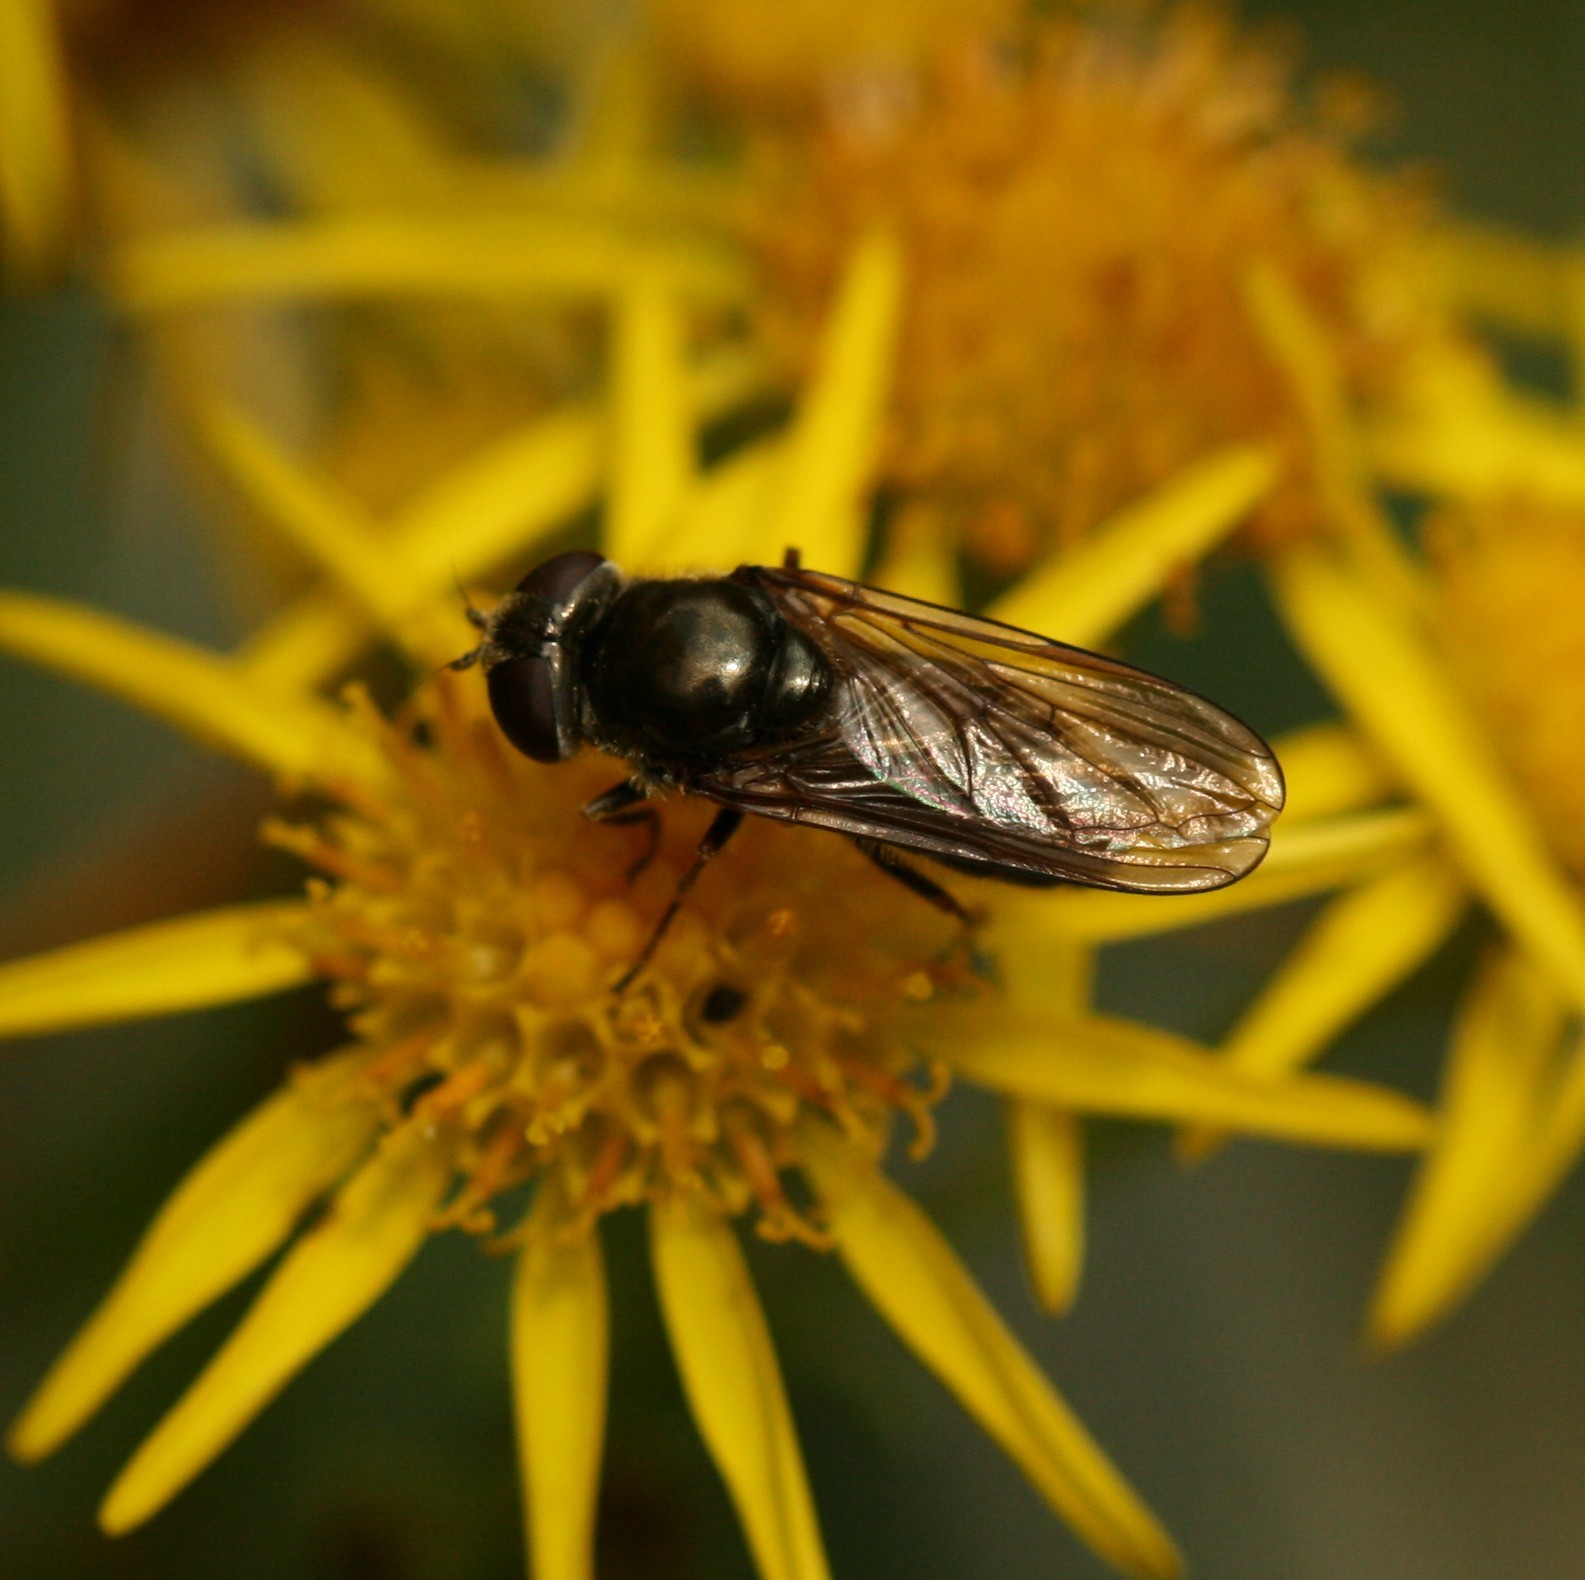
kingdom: Animalia
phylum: Arthropoda
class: Insecta
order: Diptera
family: Syrphidae
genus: Cheilosia
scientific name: Cheilosia
